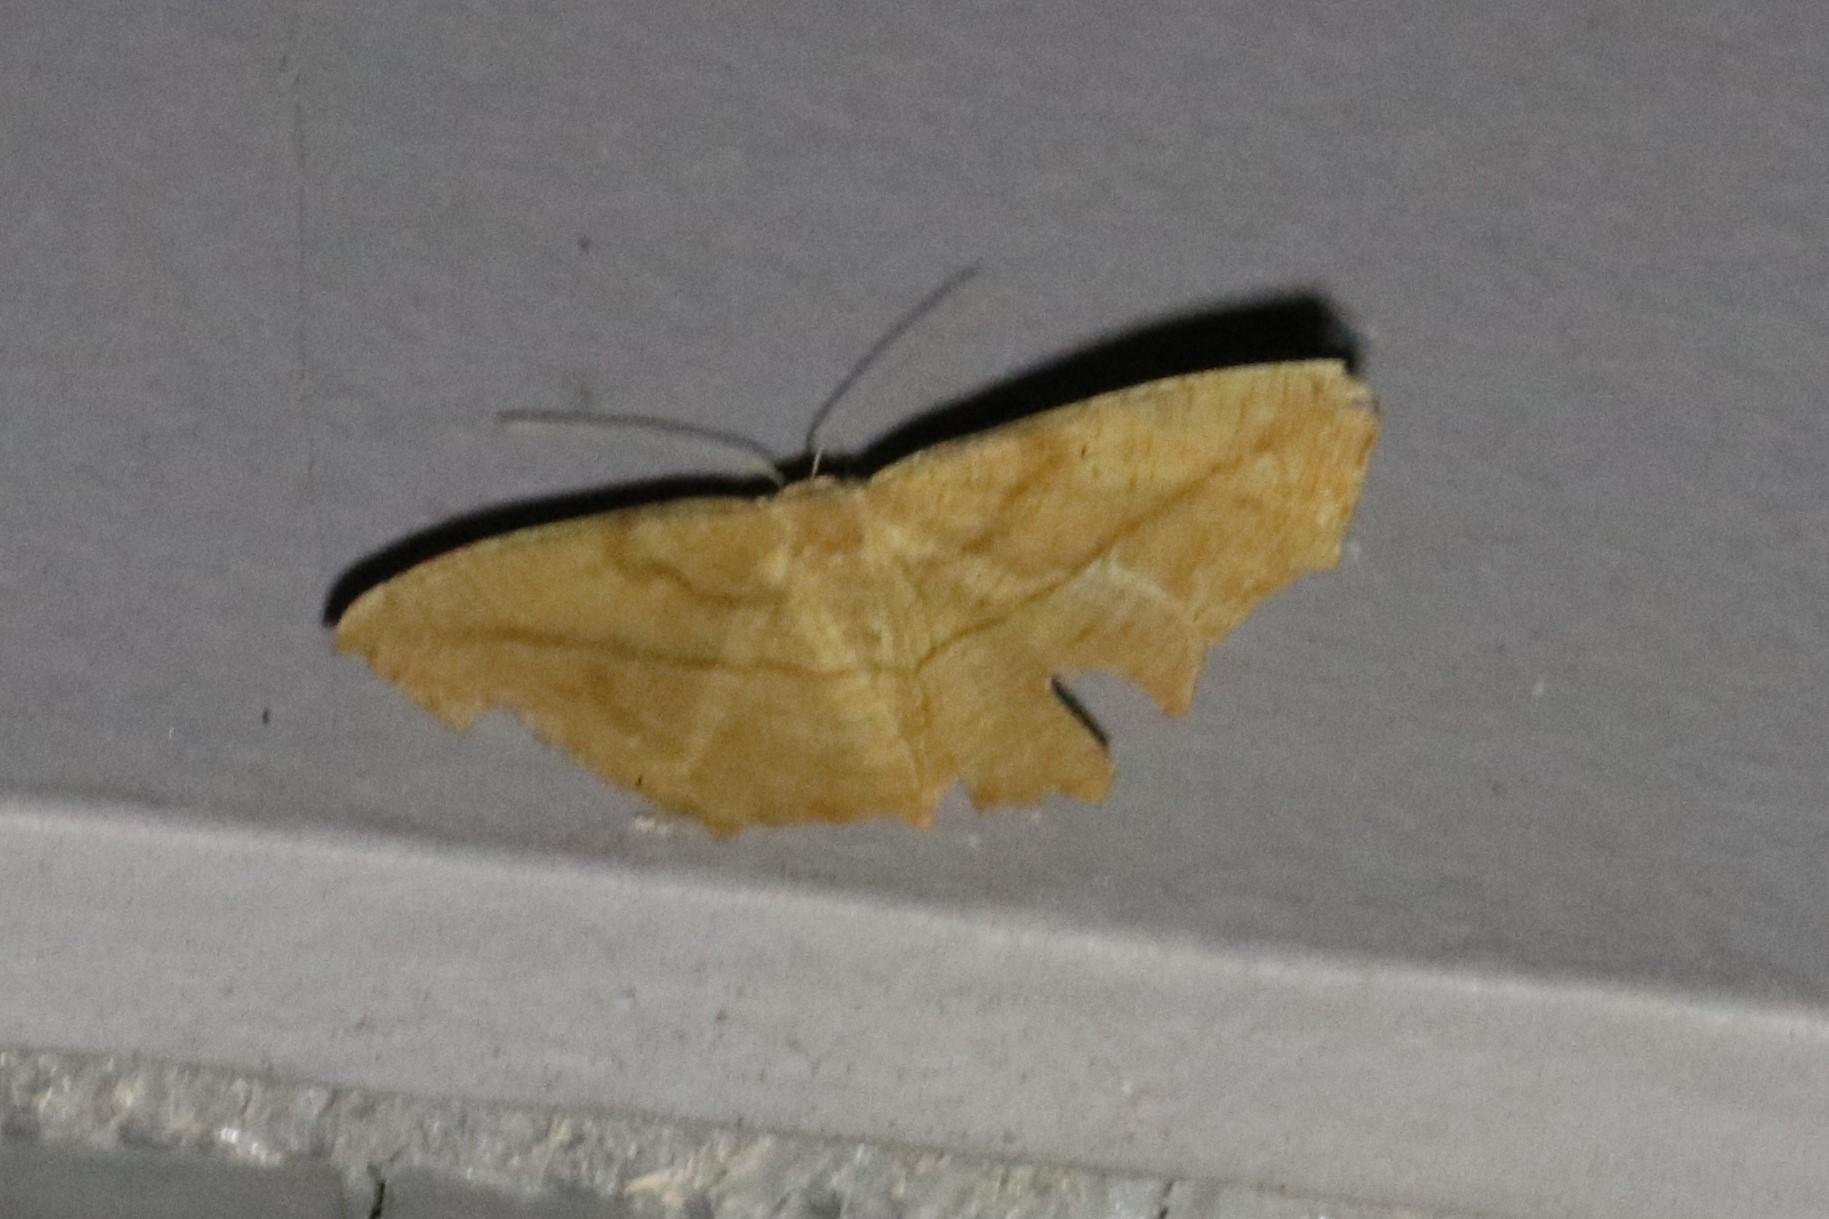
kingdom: Animalia
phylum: Arthropoda
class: Insecta
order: Lepidoptera
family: Geometridae
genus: Prochoerodes
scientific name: Prochoerodes lineola
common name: Large maple spanworm
